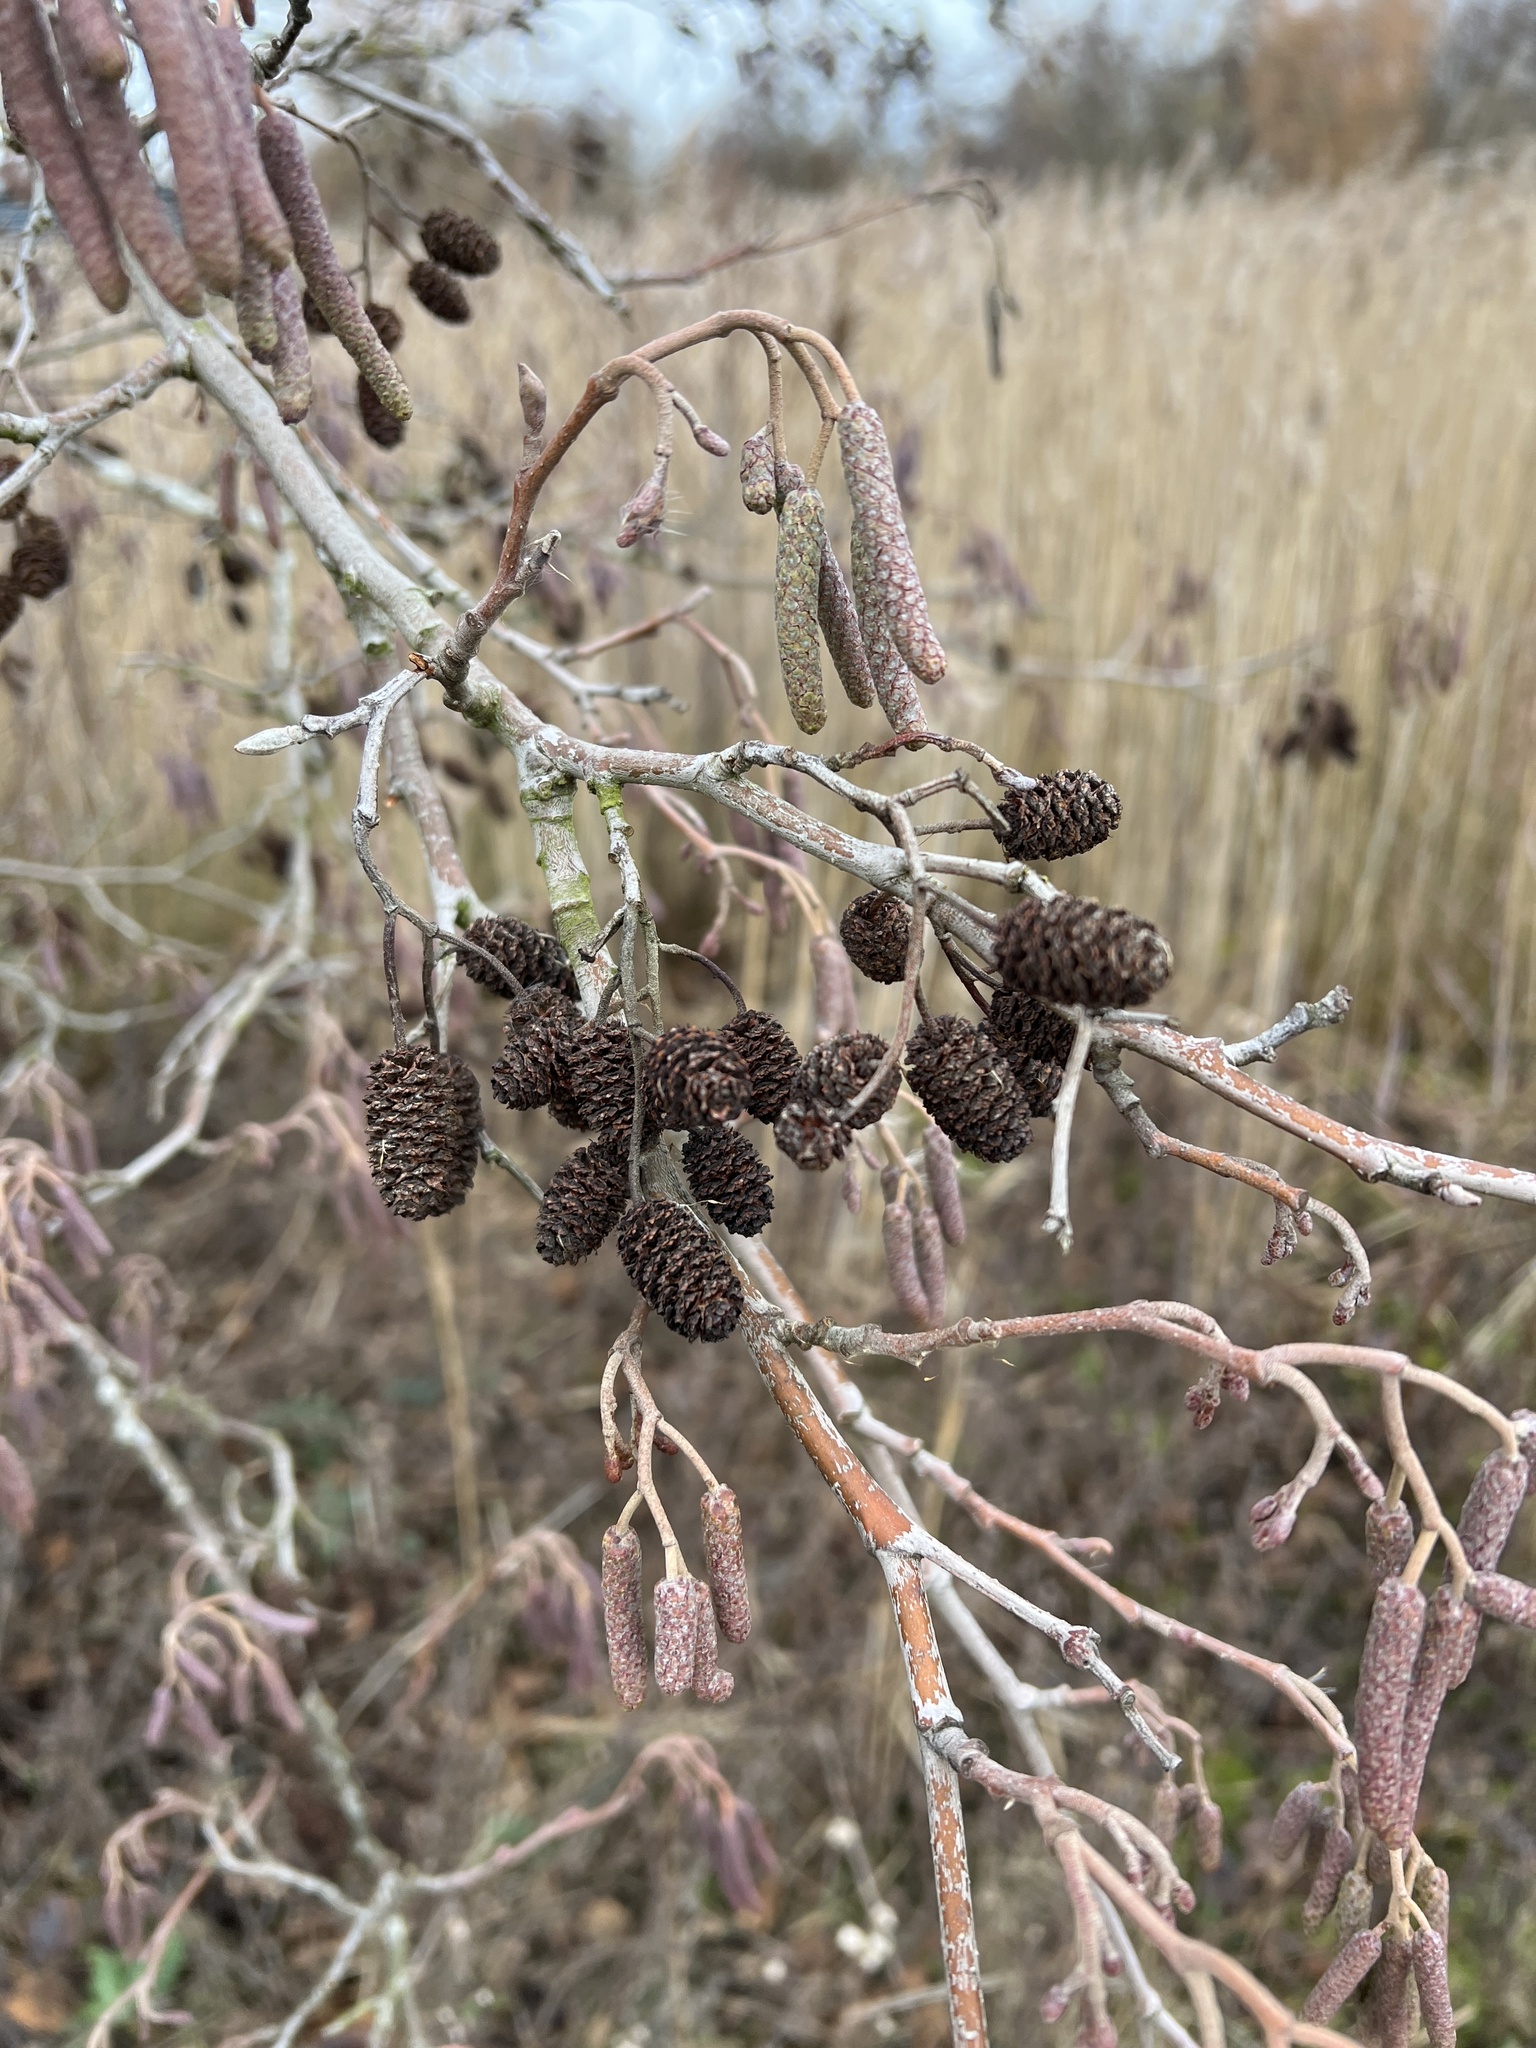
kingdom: Plantae
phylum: Tracheophyta
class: Magnoliopsida
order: Fagales
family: Betulaceae
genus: Alnus
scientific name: Alnus glutinosa
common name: Black alder
